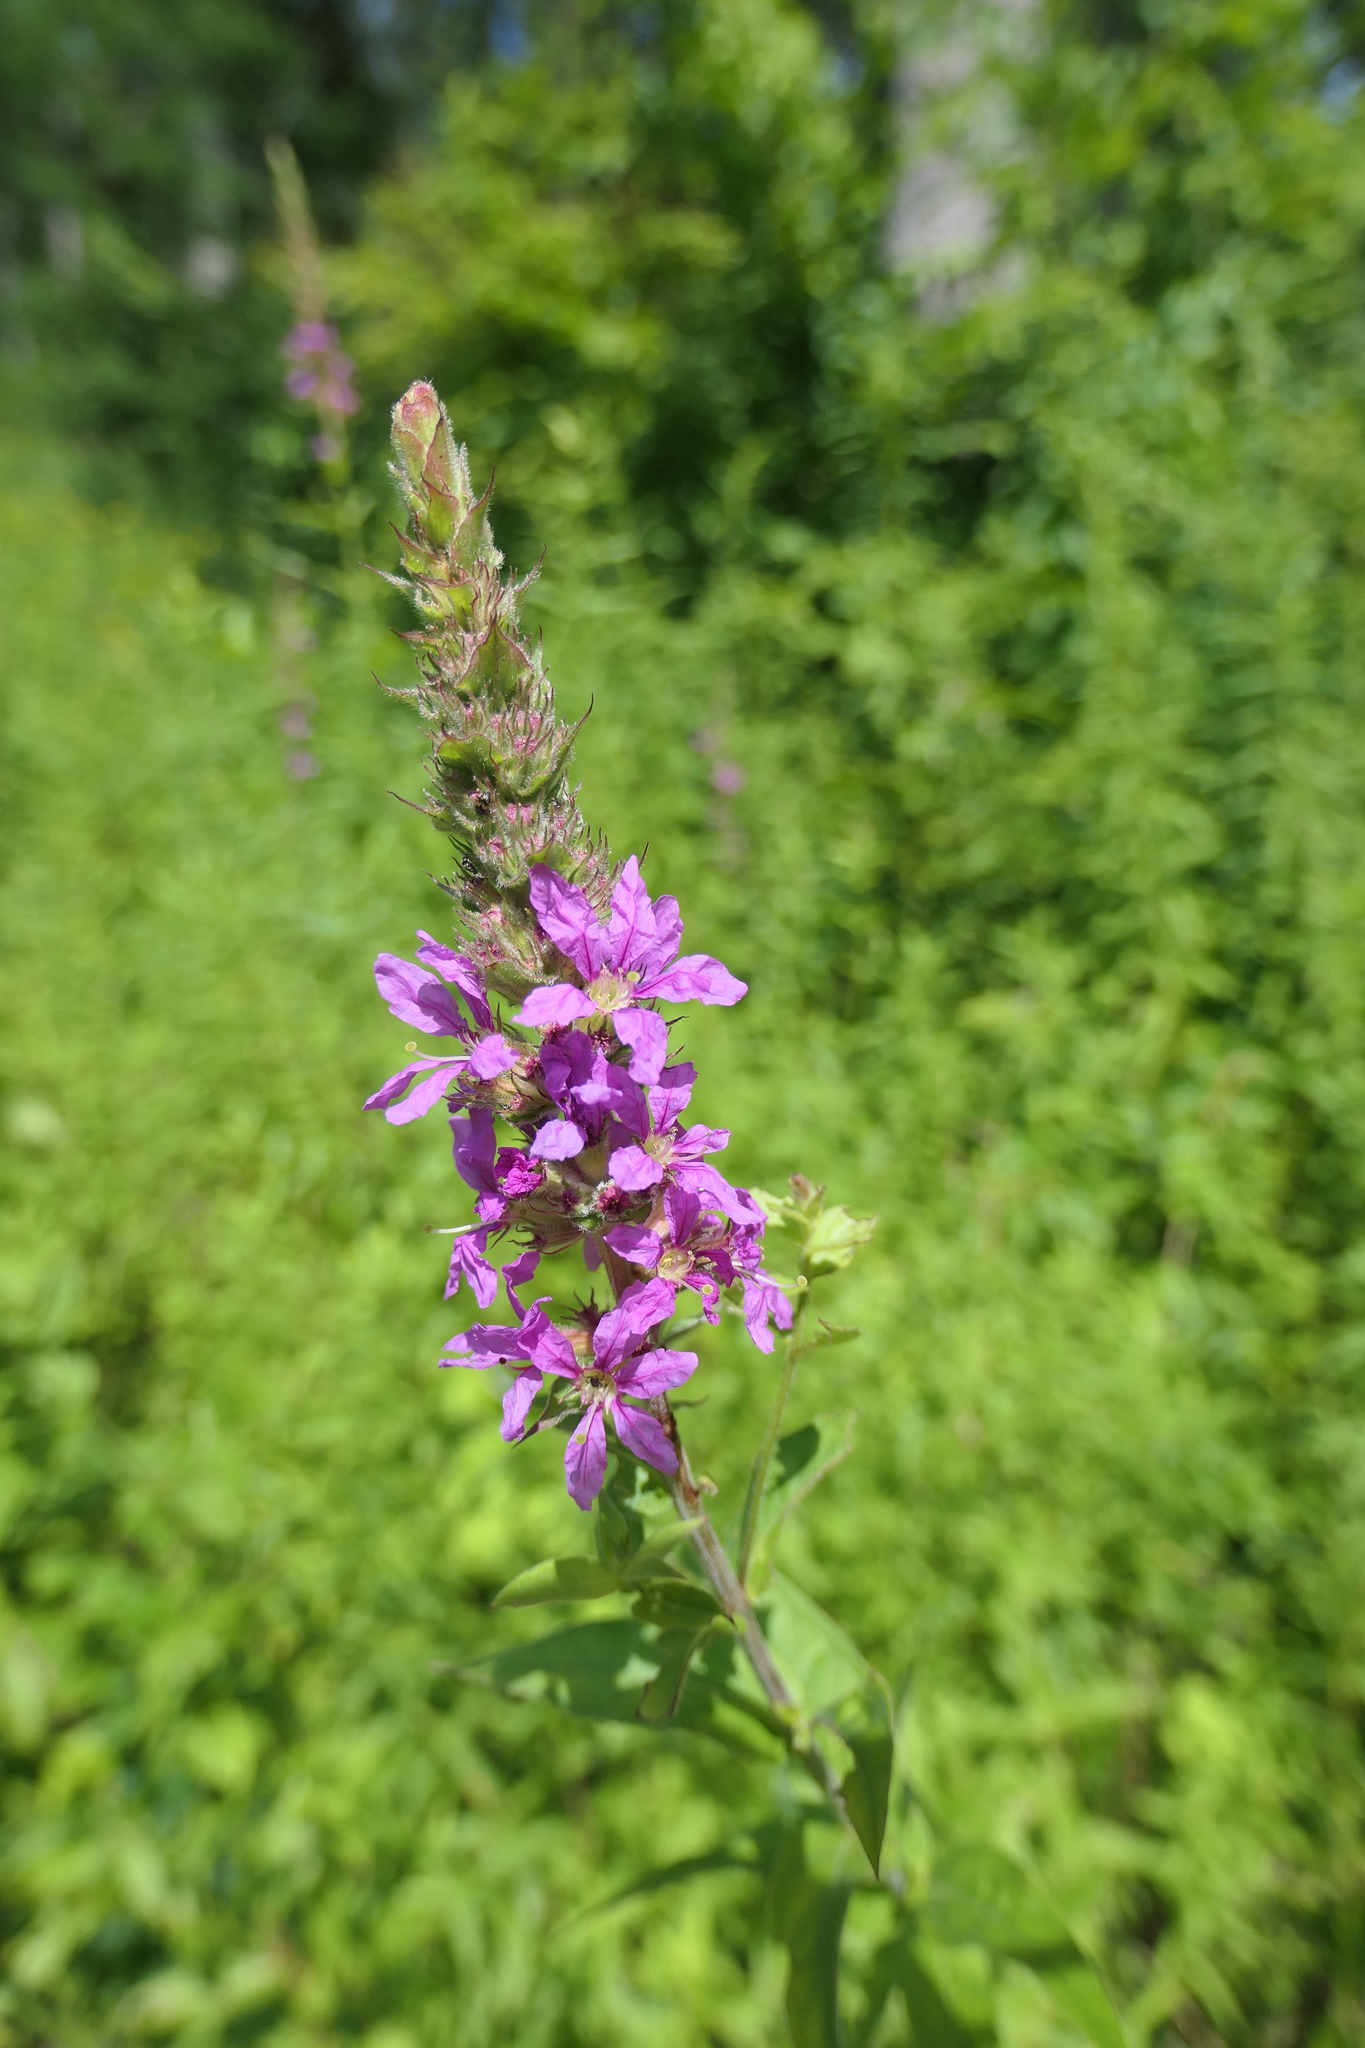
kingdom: Plantae
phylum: Tracheophyta
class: Magnoliopsida
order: Myrtales
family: Lythraceae
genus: Lythrum
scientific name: Lythrum salicaria
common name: Purple loosestrife
